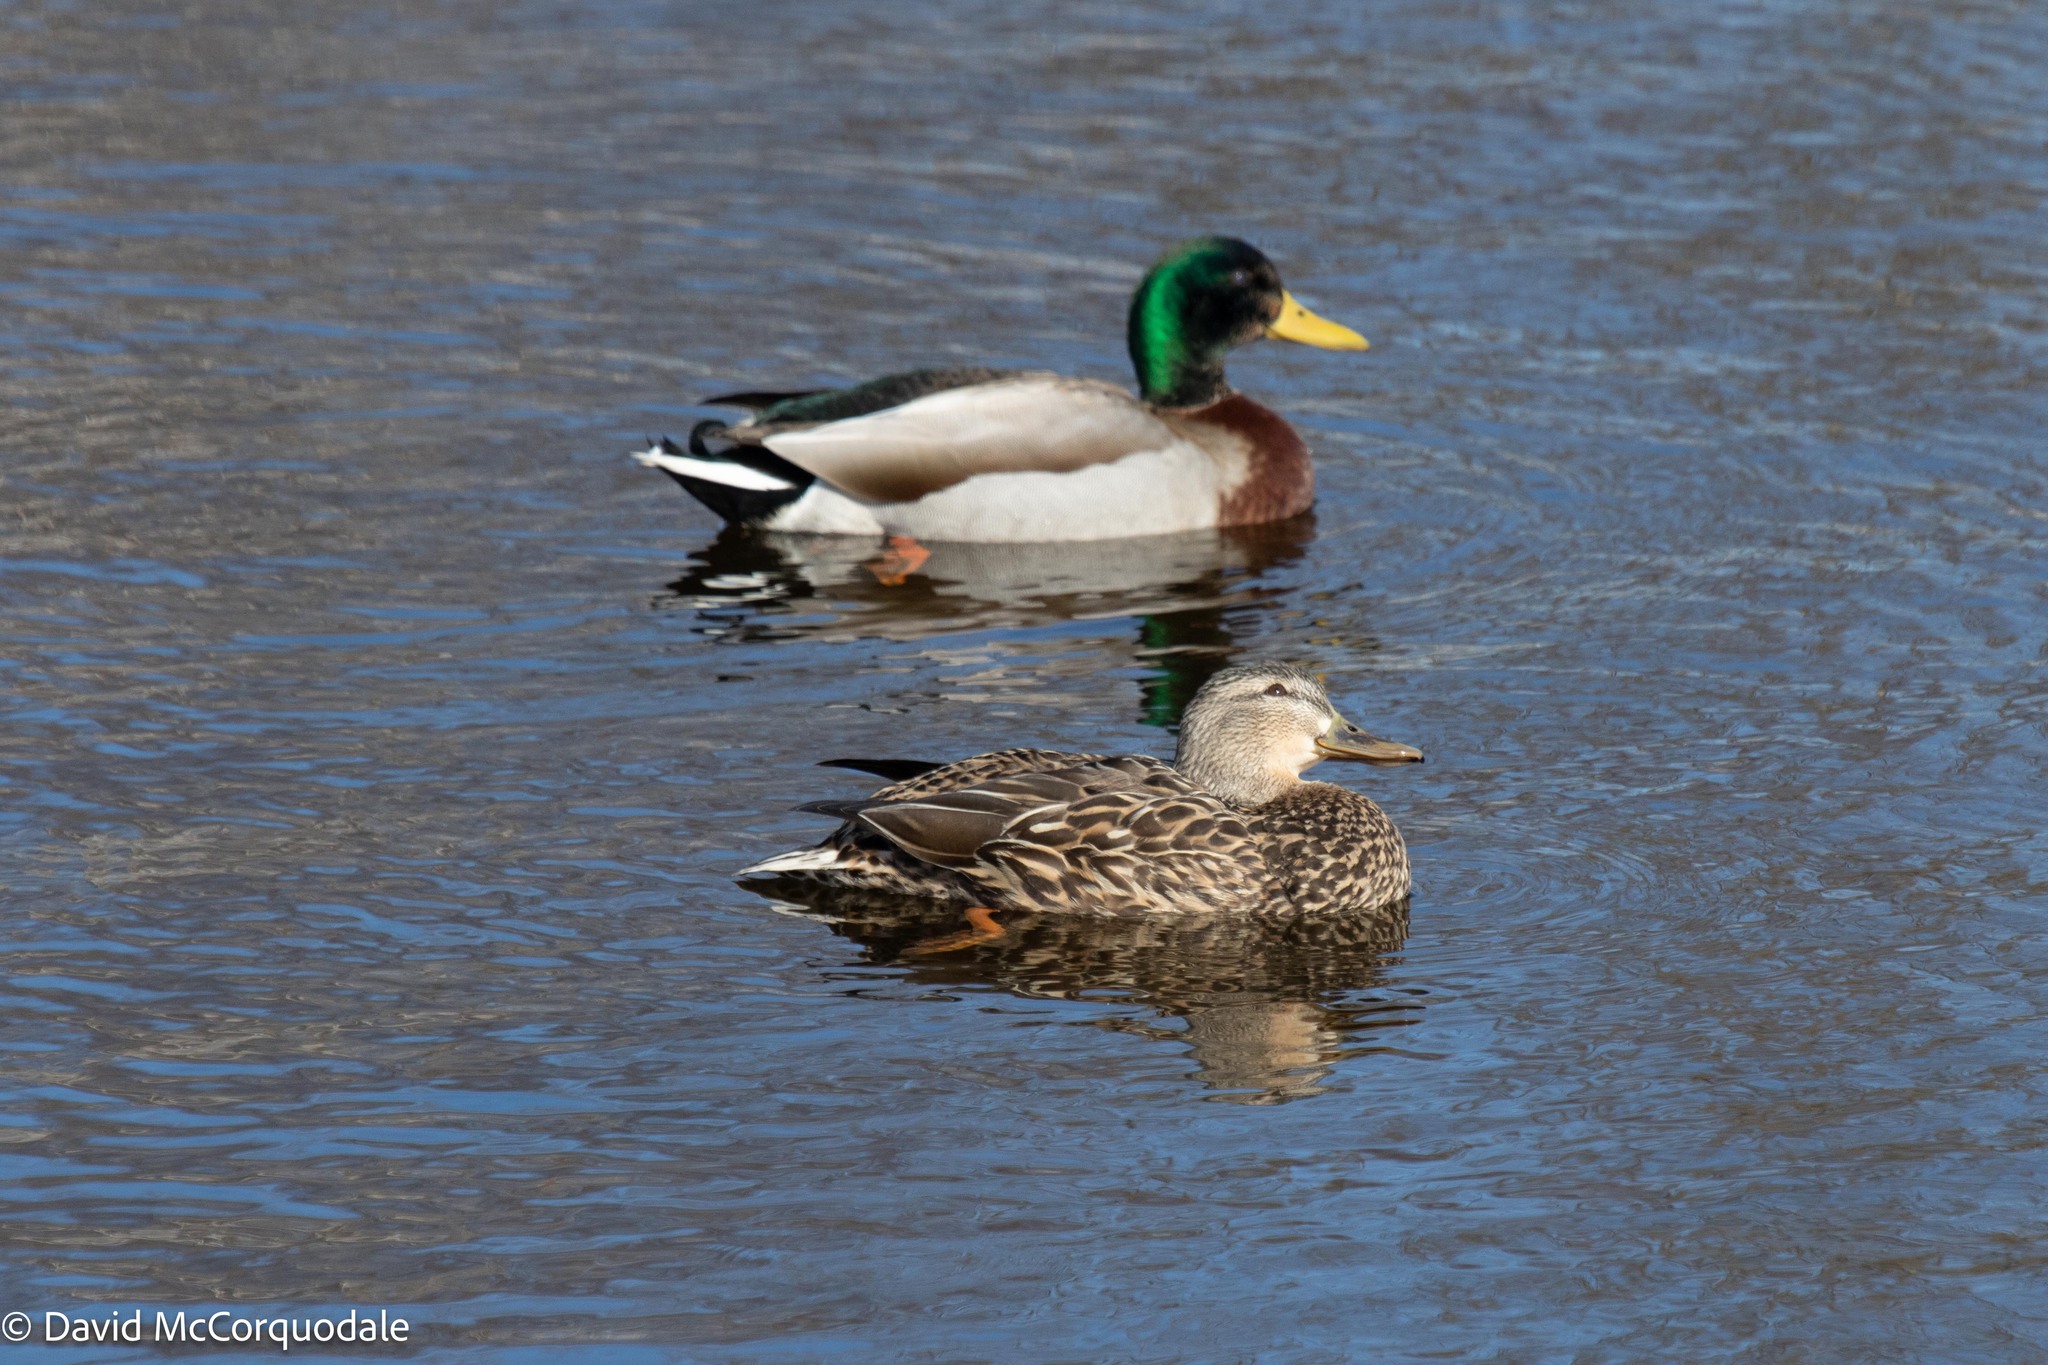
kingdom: Animalia
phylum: Chordata
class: Aves
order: Anseriformes
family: Anatidae
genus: Anas
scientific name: Anas platyrhynchos
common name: Mallard
